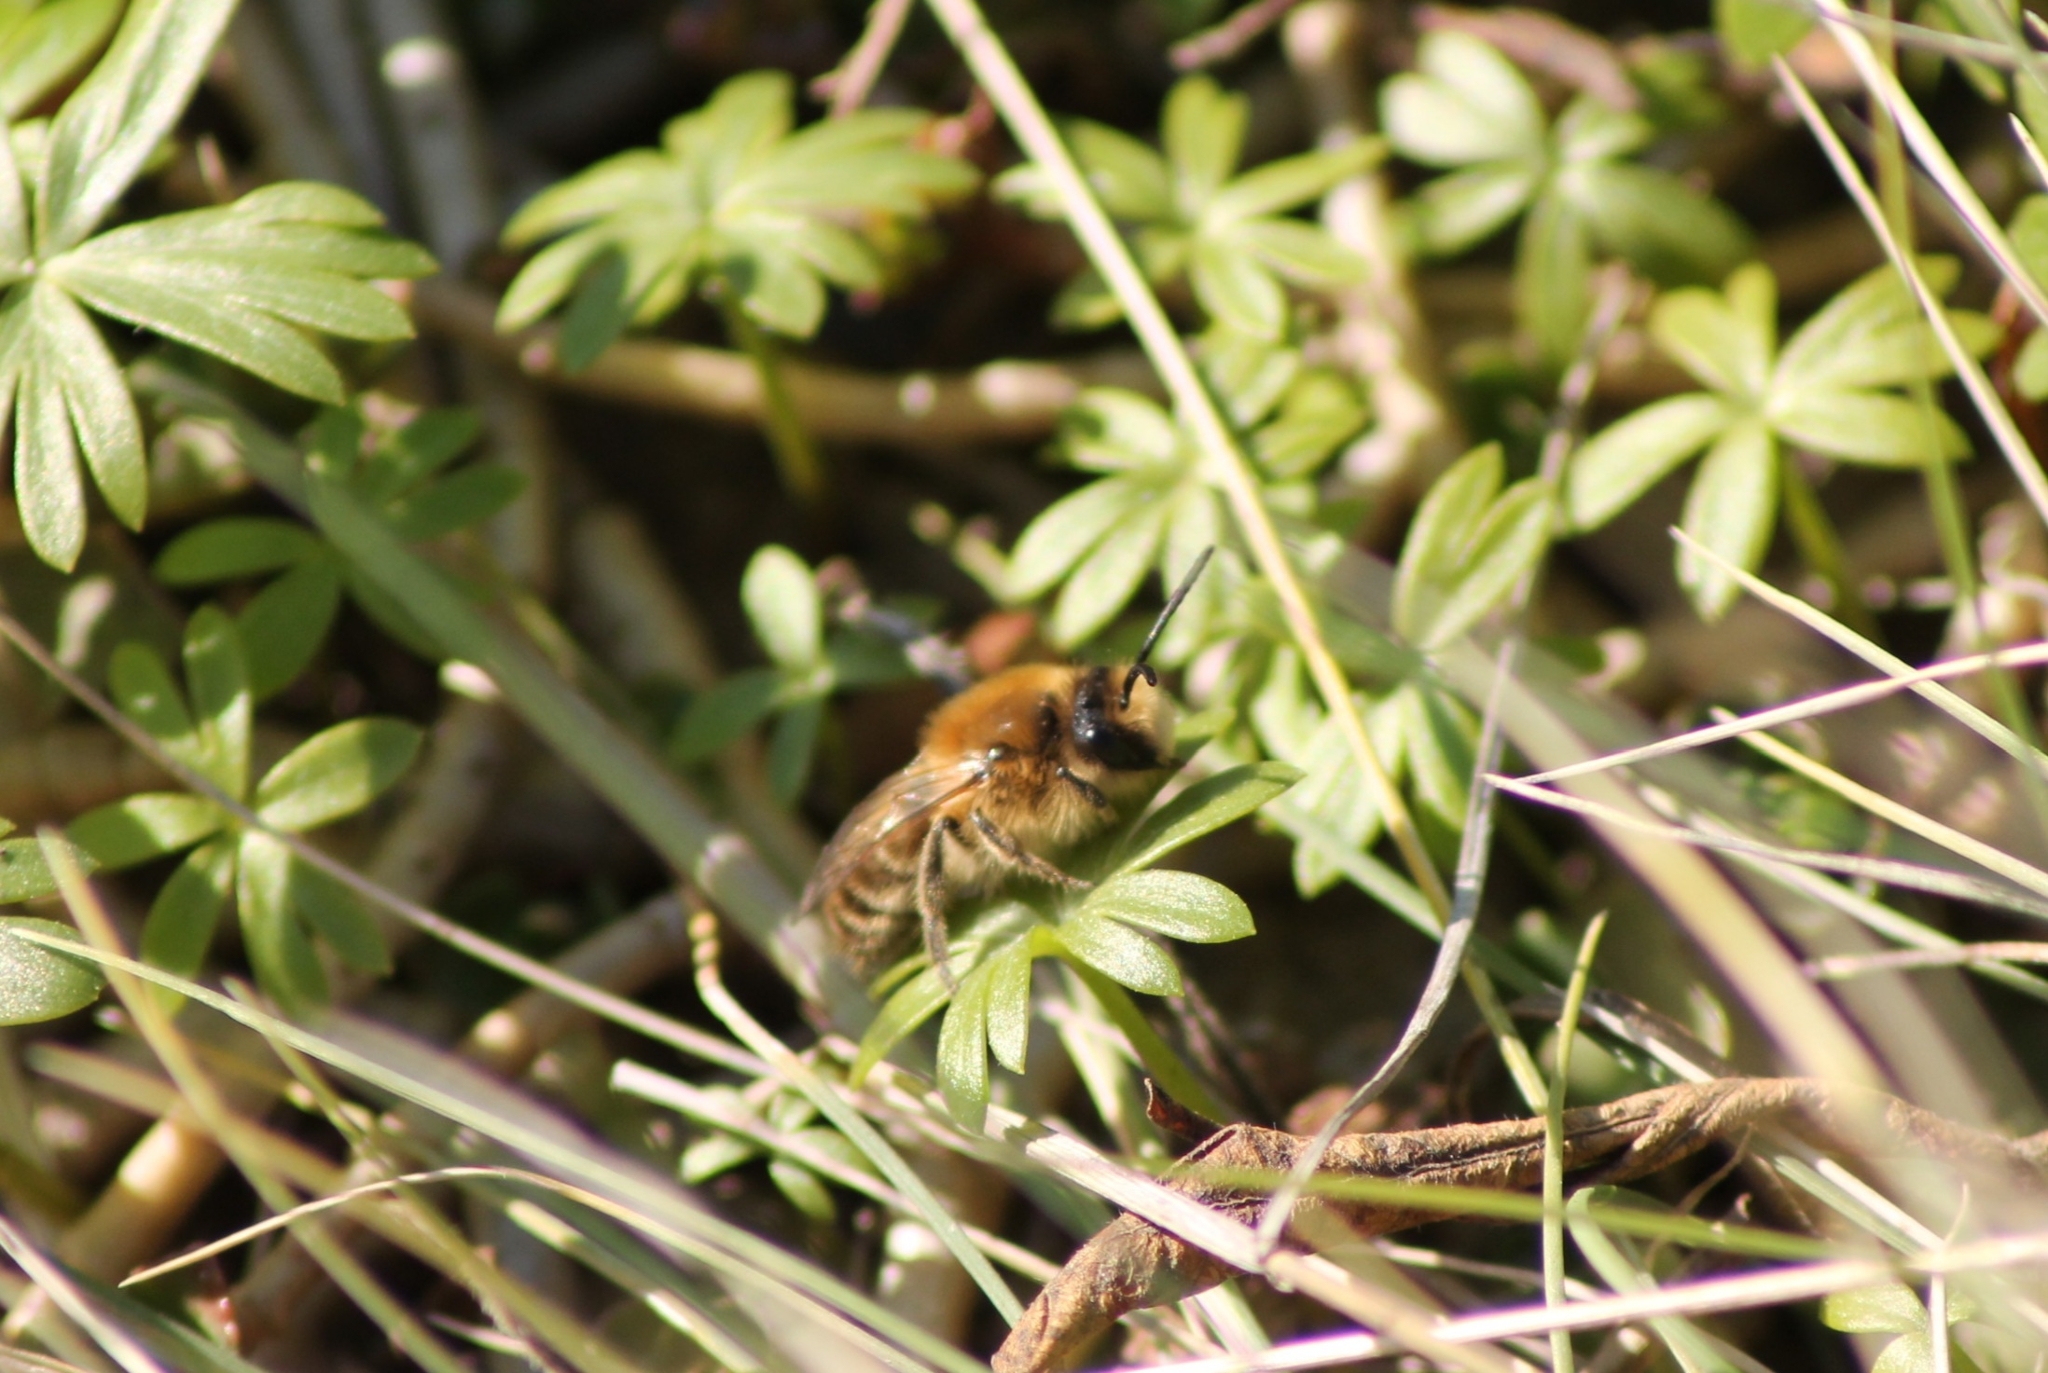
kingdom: Animalia
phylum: Arthropoda
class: Insecta
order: Hymenoptera
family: Colletidae
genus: Colletes
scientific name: Colletes cunicularius
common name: Early colletes
